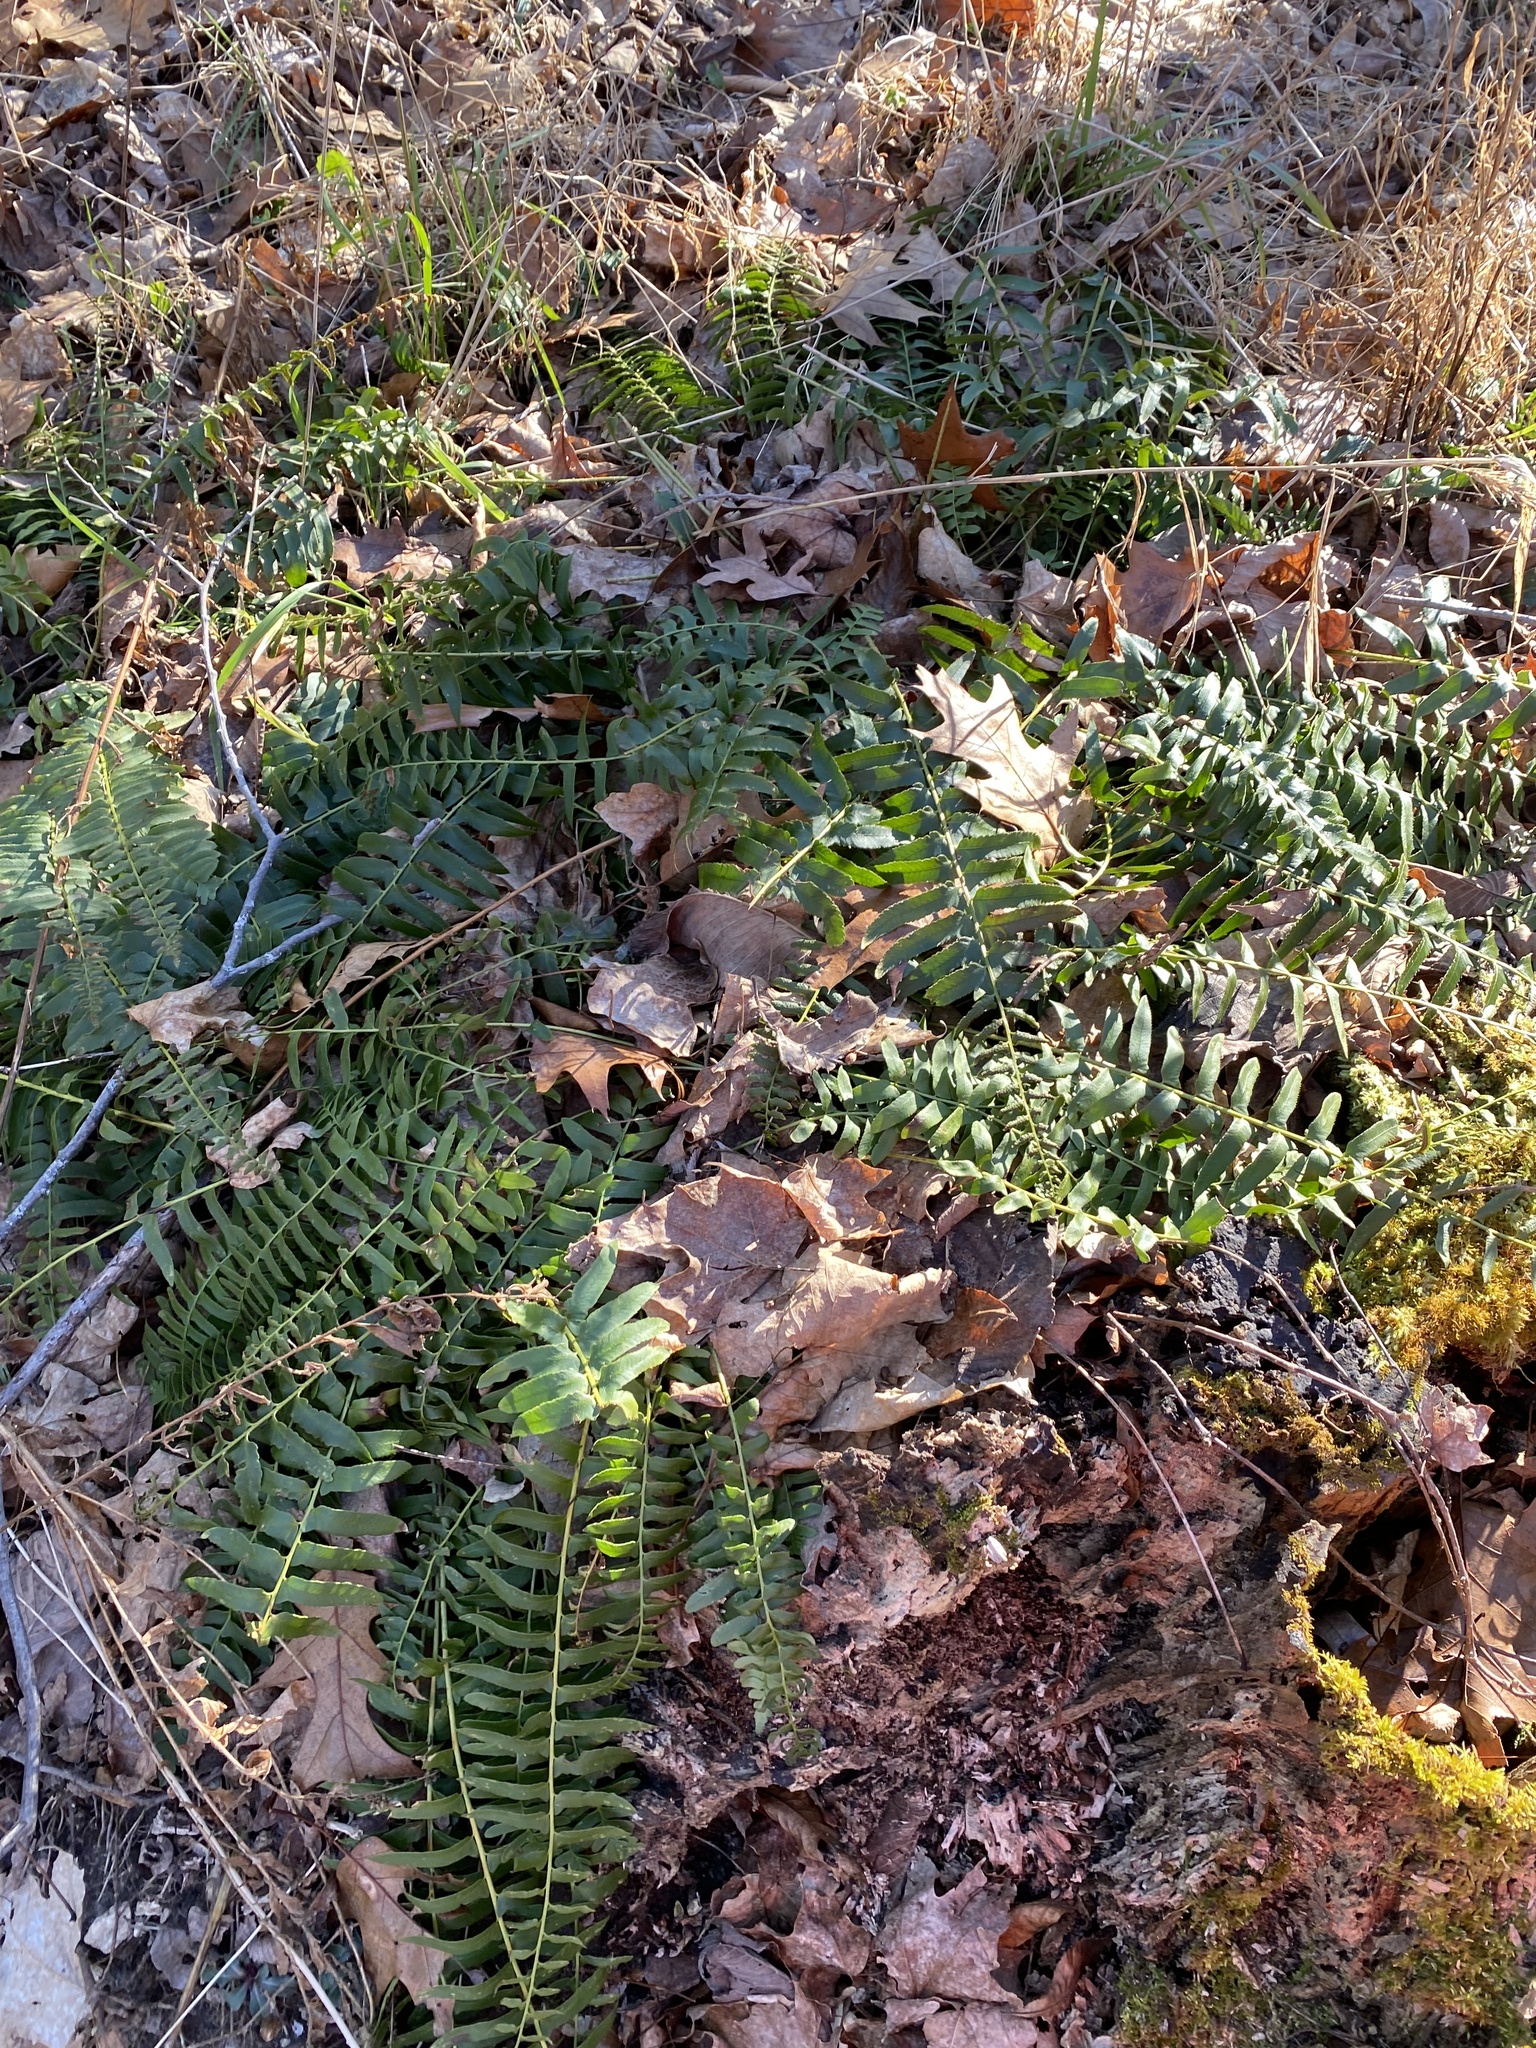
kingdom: Plantae
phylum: Tracheophyta
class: Polypodiopsida
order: Polypodiales
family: Dryopteridaceae
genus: Polystichum
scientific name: Polystichum acrostichoides
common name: Christmas fern
